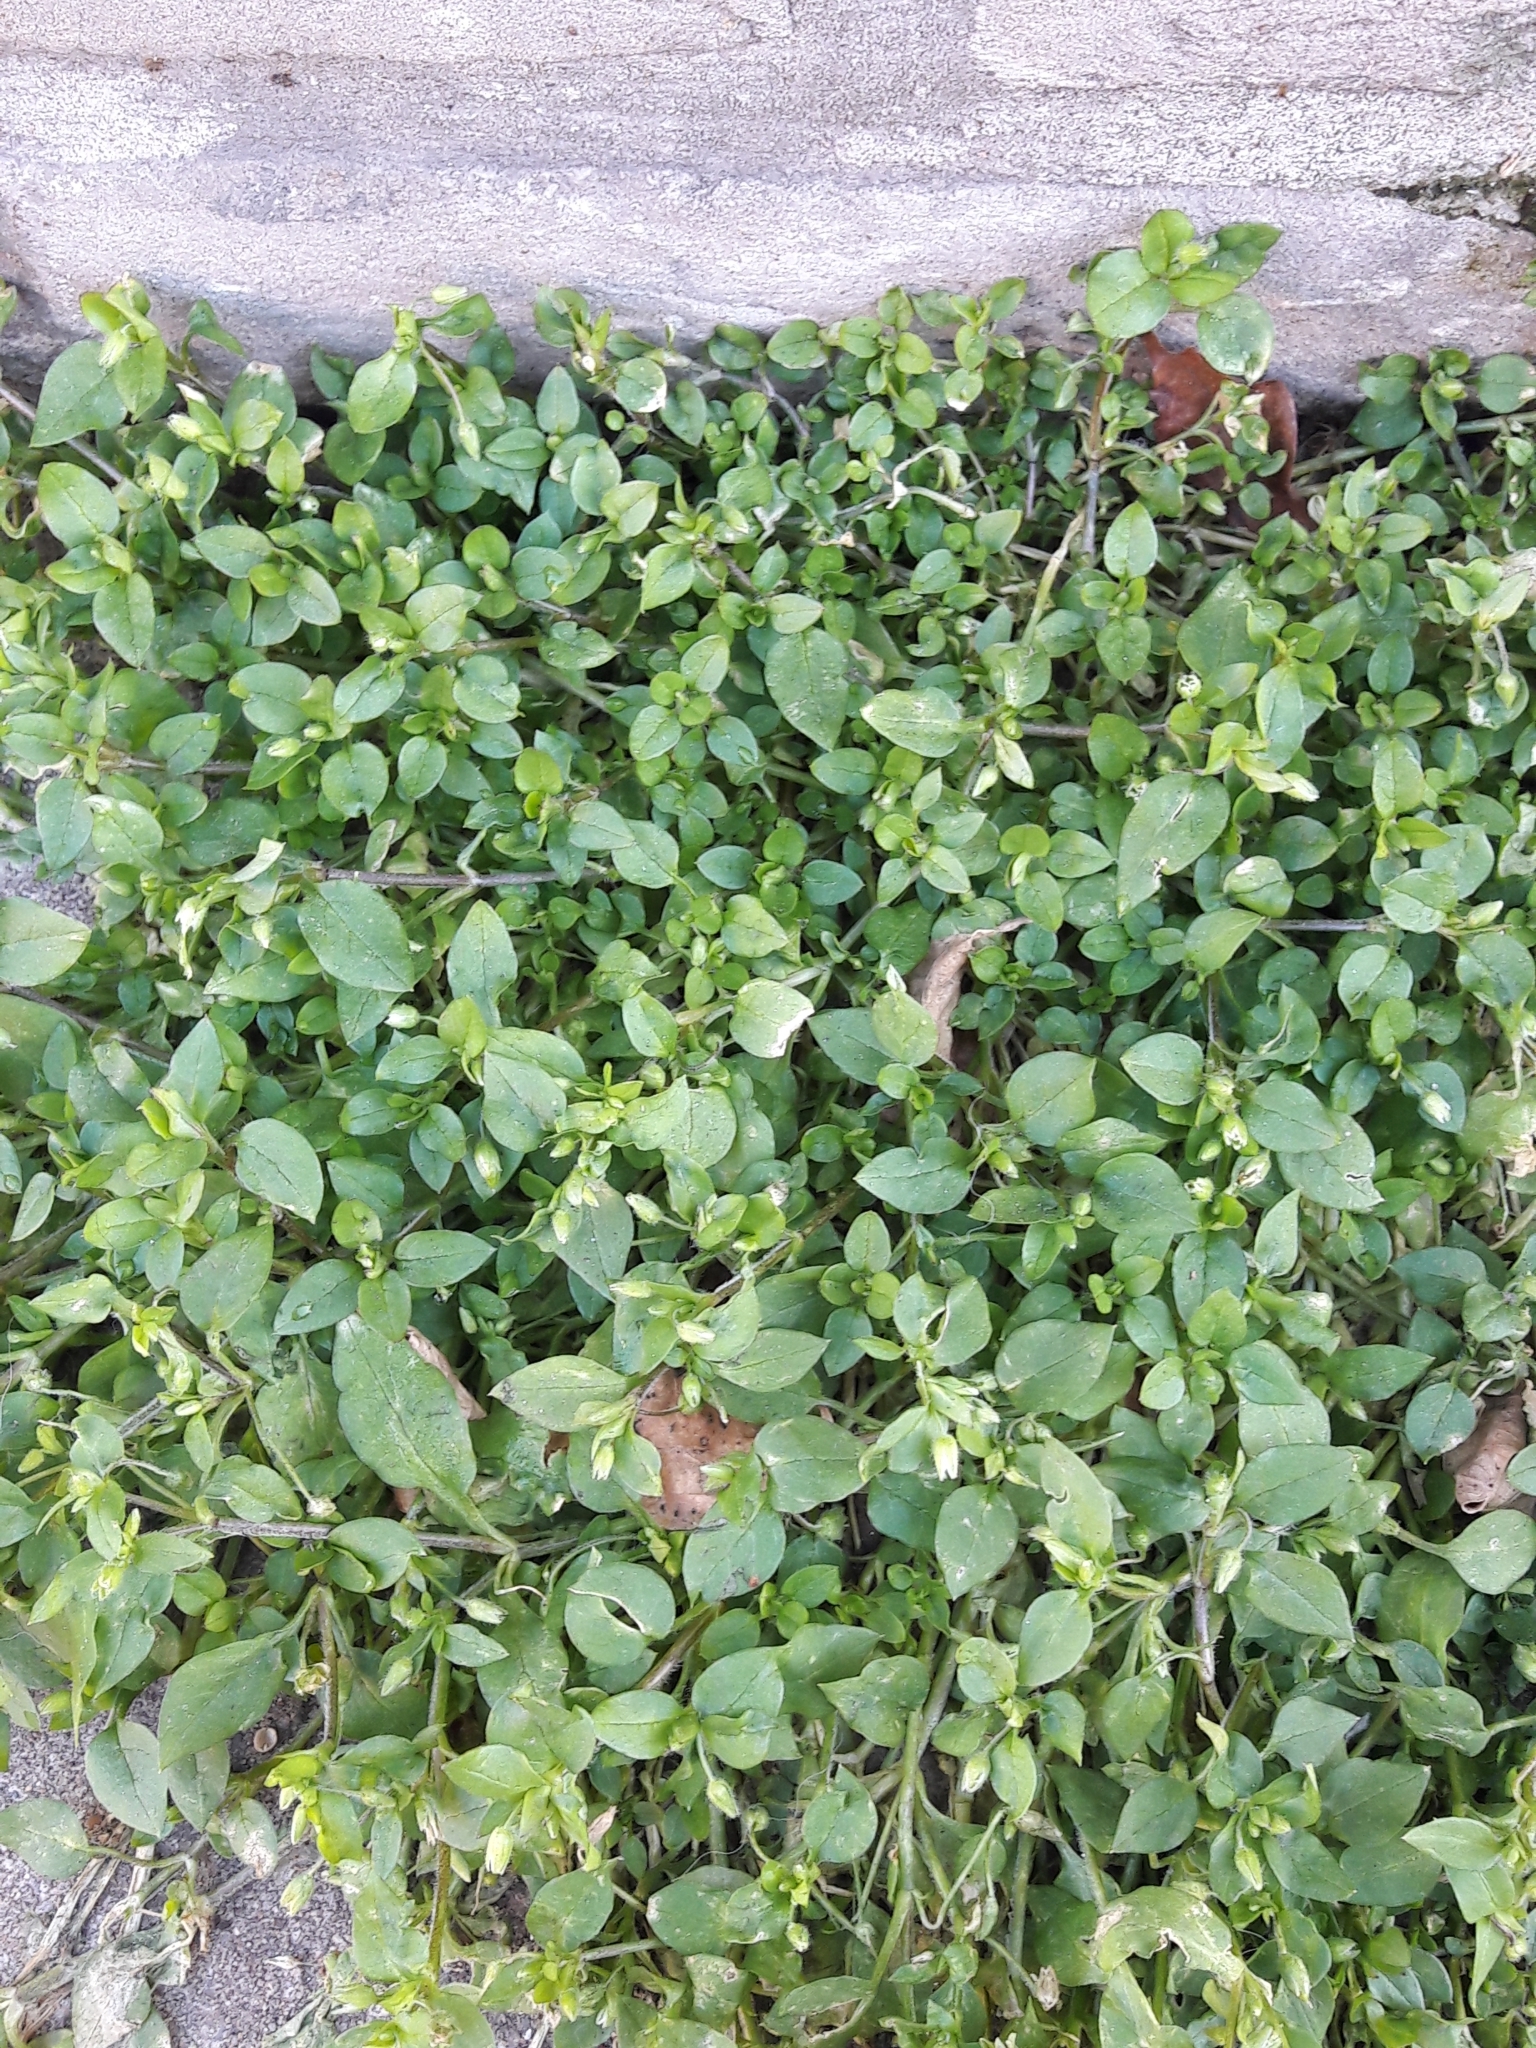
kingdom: Plantae
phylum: Tracheophyta
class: Magnoliopsida
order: Caryophyllales
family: Caryophyllaceae
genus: Stellaria
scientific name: Stellaria media
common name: Common chickweed
